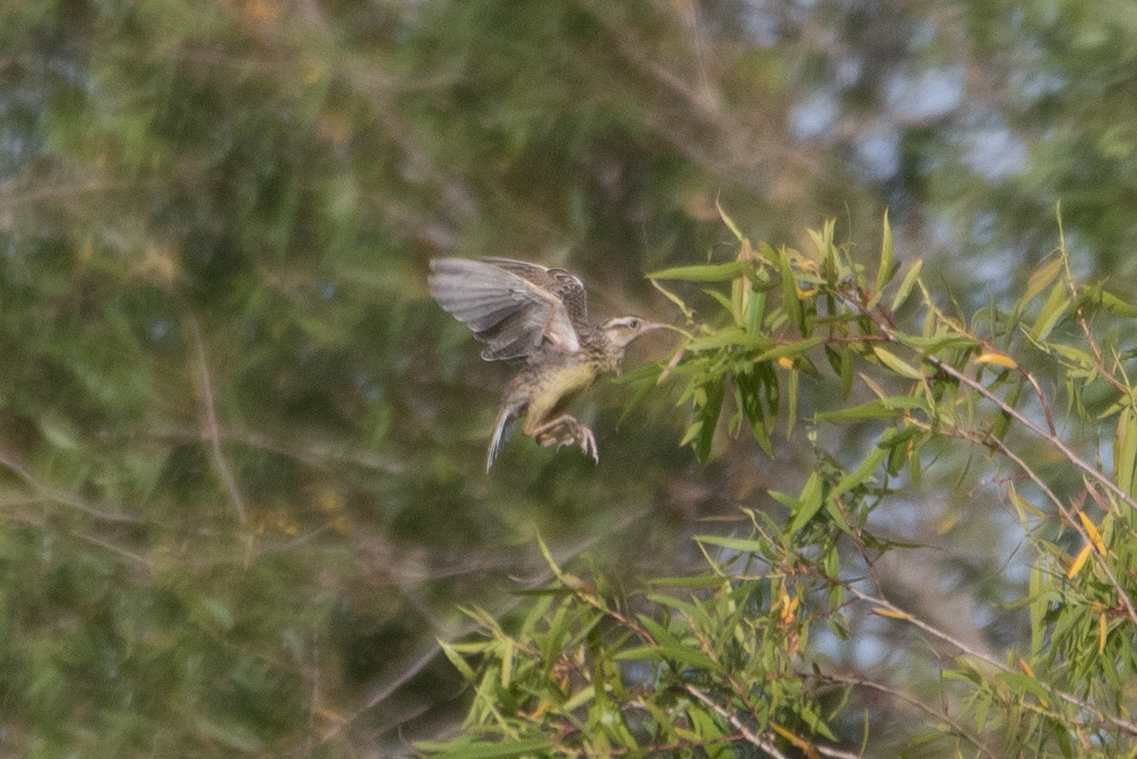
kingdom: Animalia
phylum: Chordata
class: Aves
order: Passeriformes
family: Icteridae
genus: Sturnella
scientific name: Sturnella neglecta
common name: Western meadowlark
